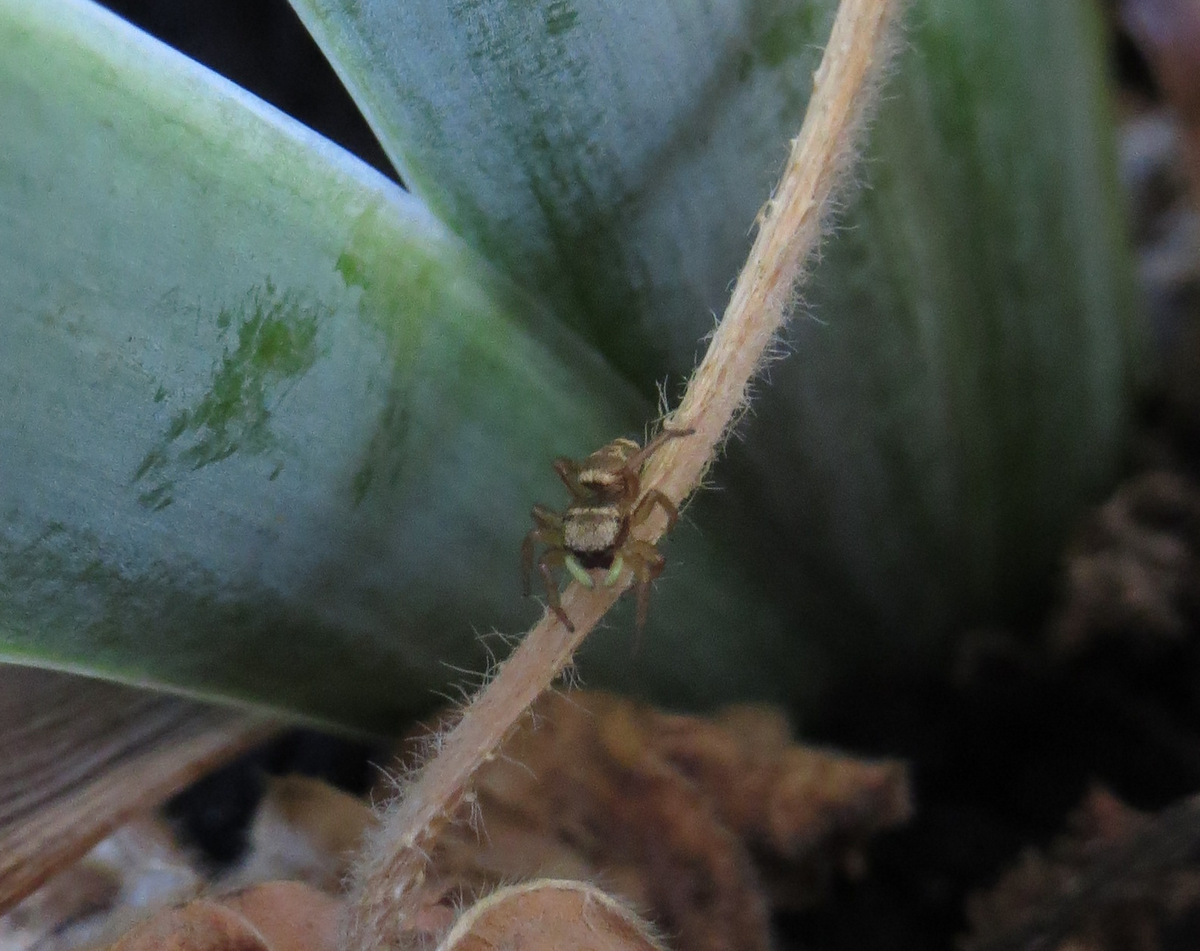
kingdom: Animalia
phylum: Arthropoda
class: Arachnida
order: Araneae
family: Salticidae
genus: Heliophanus
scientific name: Heliophanus tribulosus
